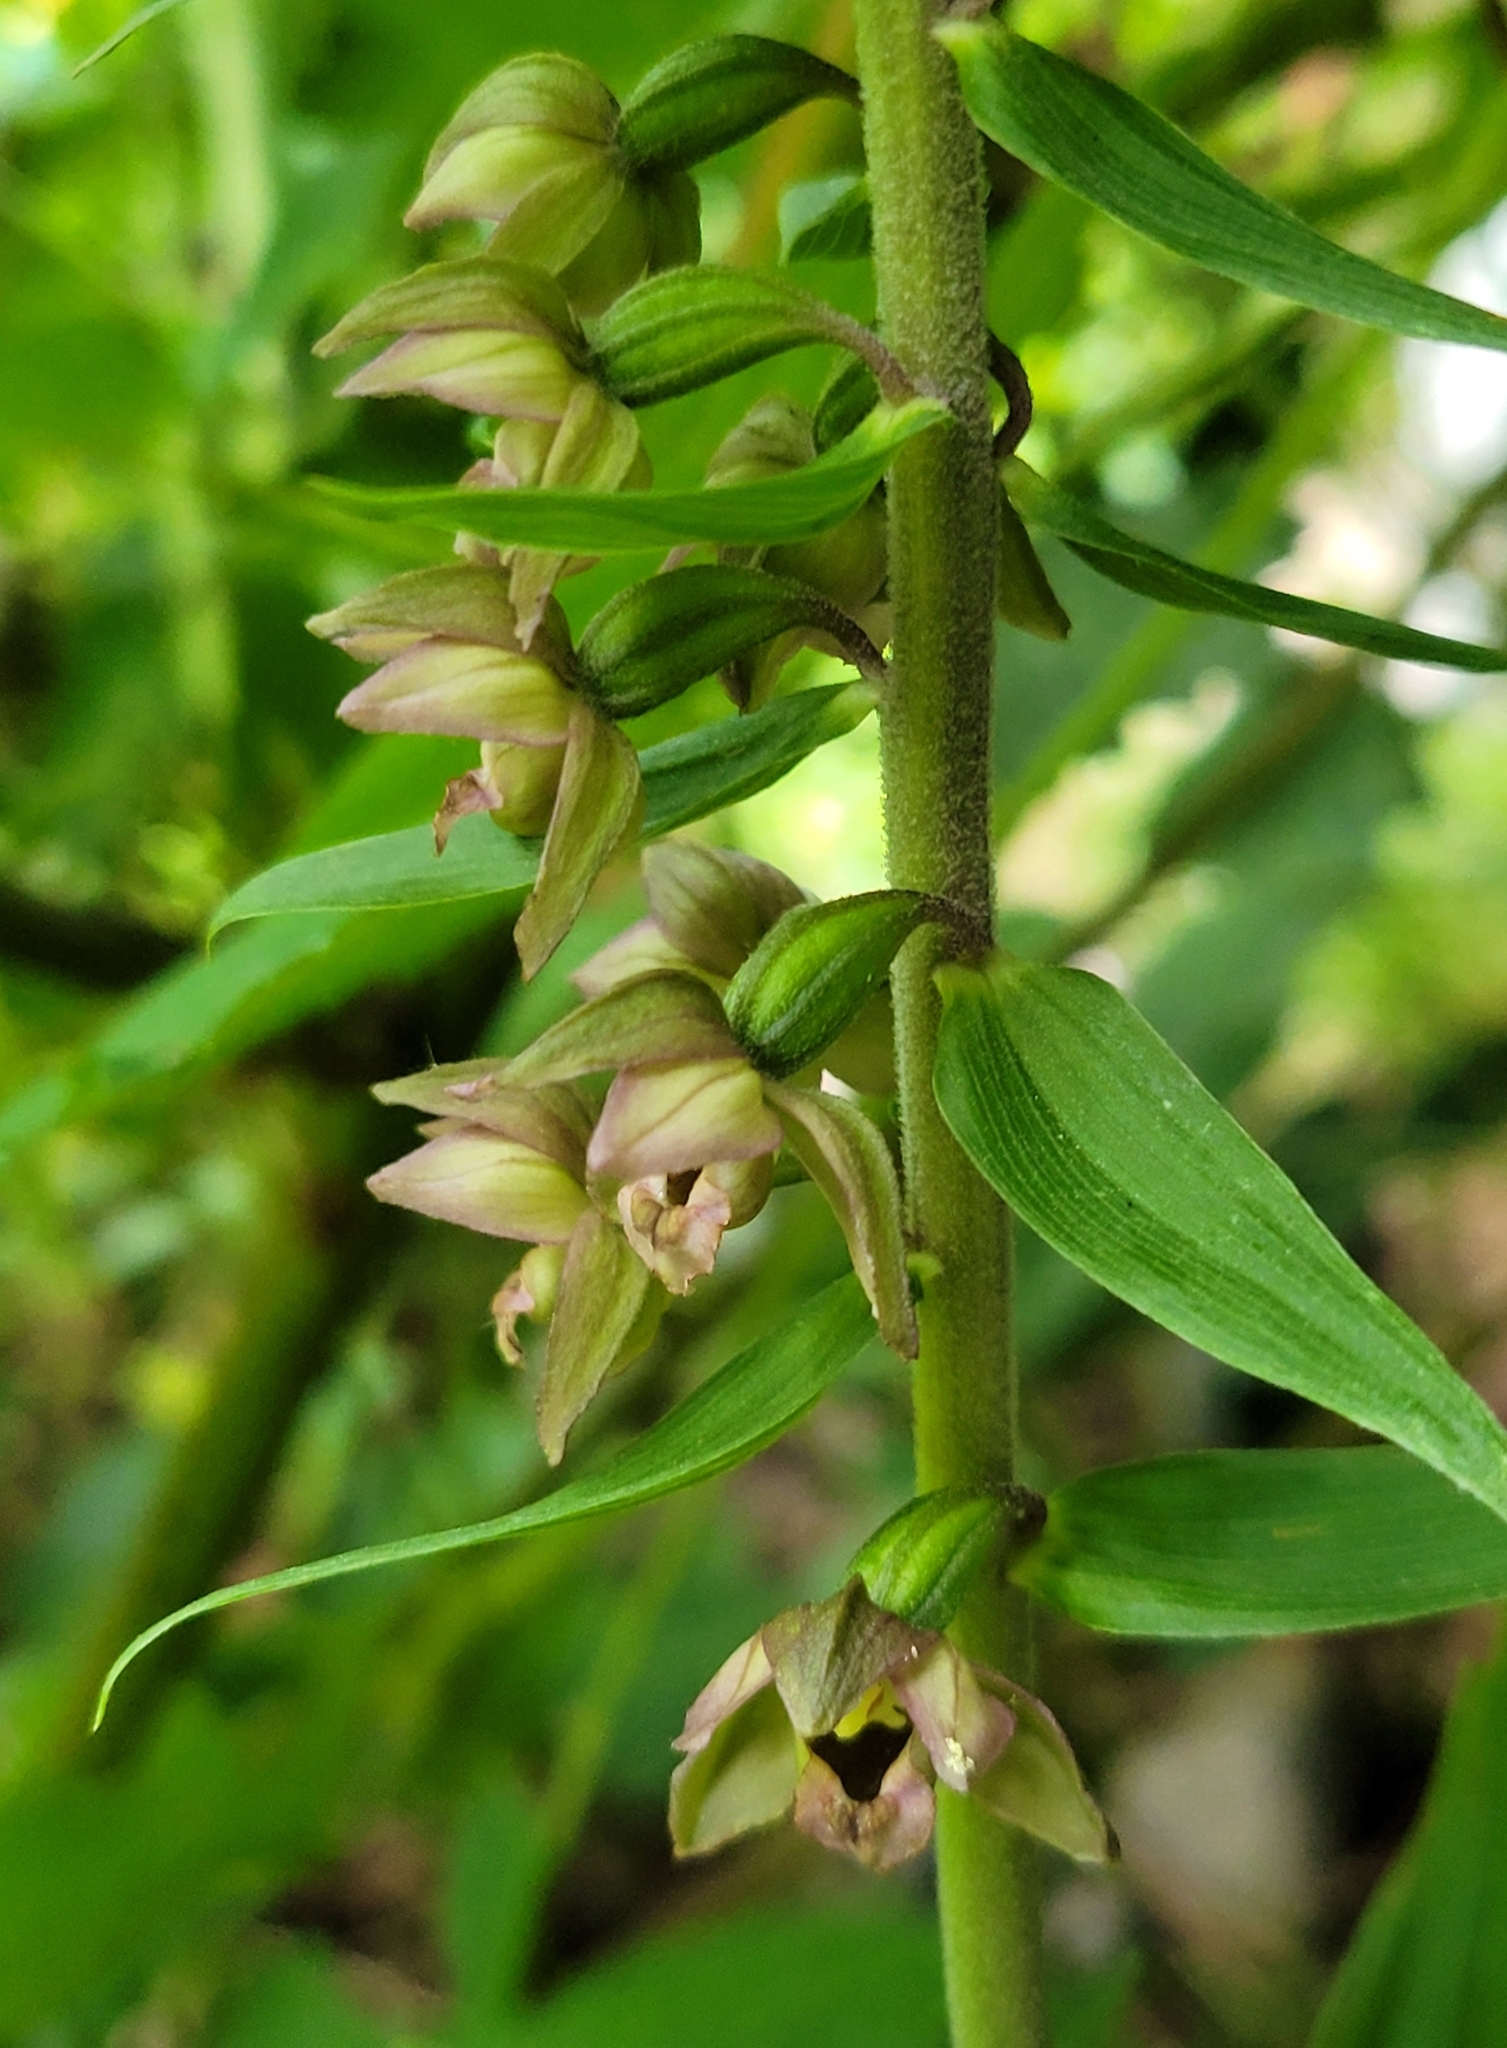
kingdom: Plantae
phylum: Tracheophyta
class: Liliopsida
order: Asparagales
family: Orchidaceae
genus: Epipactis
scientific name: Epipactis helleborine
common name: Broad-leaved helleborine
